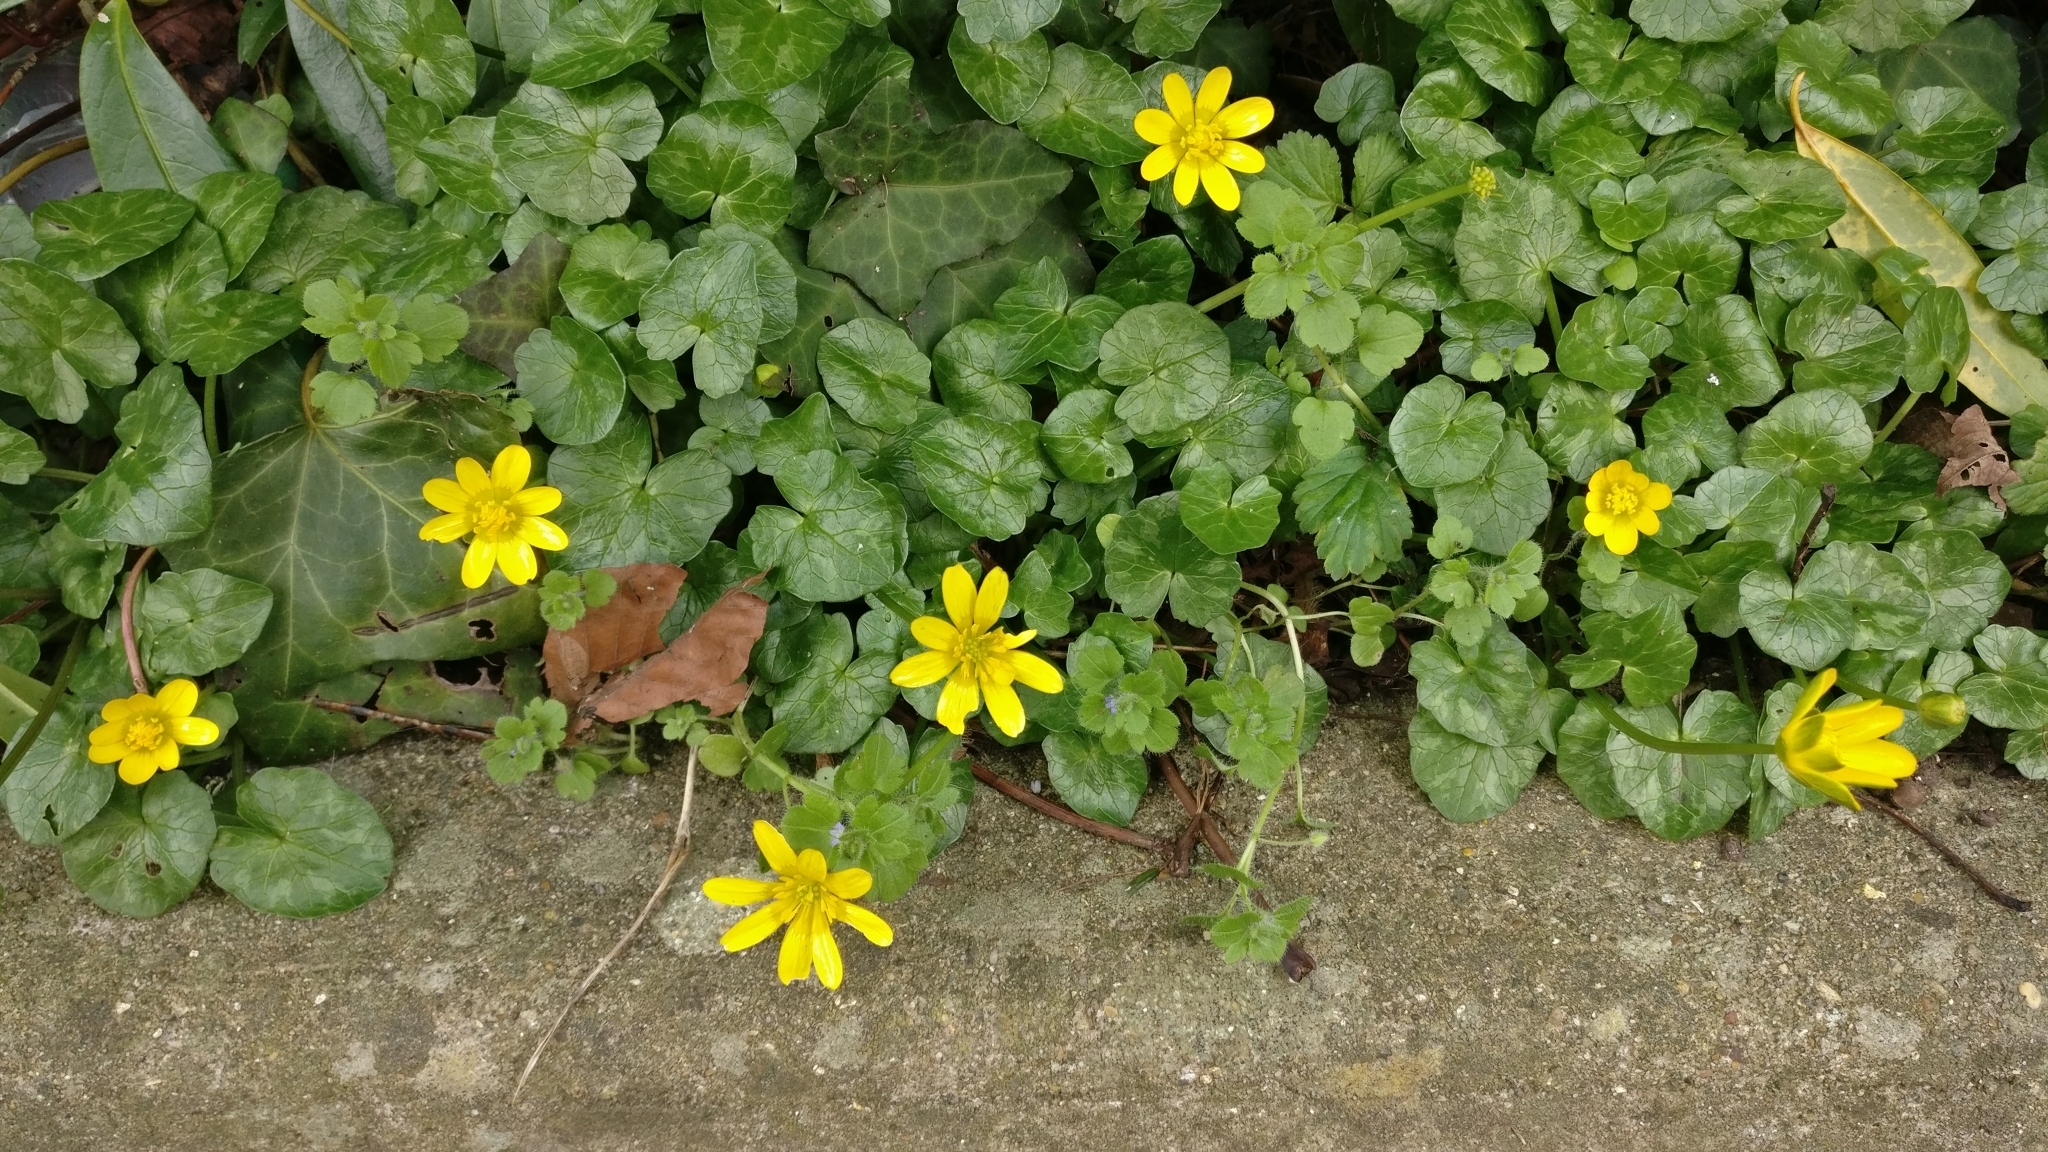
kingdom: Plantae
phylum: Tracheophyta
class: Magnoliopsida
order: Ranunculales
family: Ranunculaceae
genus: Ficaria
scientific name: Ficaria verna
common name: Lesser celandine
